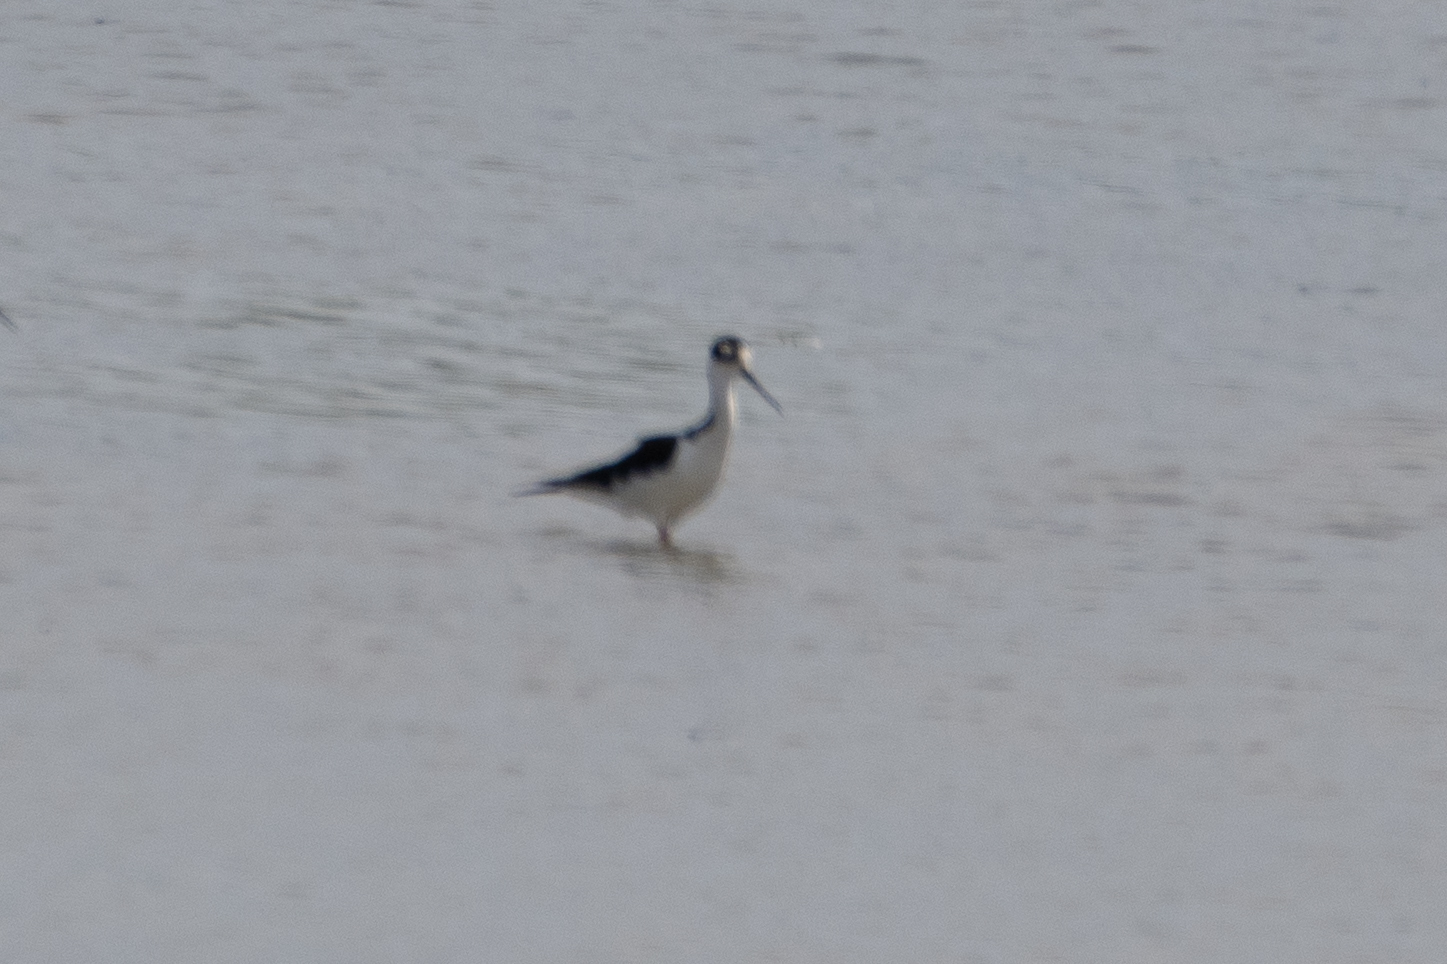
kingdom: Animalia
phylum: Chordata
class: Aves
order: Charadriiformes
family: Recurvirostridae
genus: Himantopus
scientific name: Himantopus mexicanus
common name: Black-necked stilt
